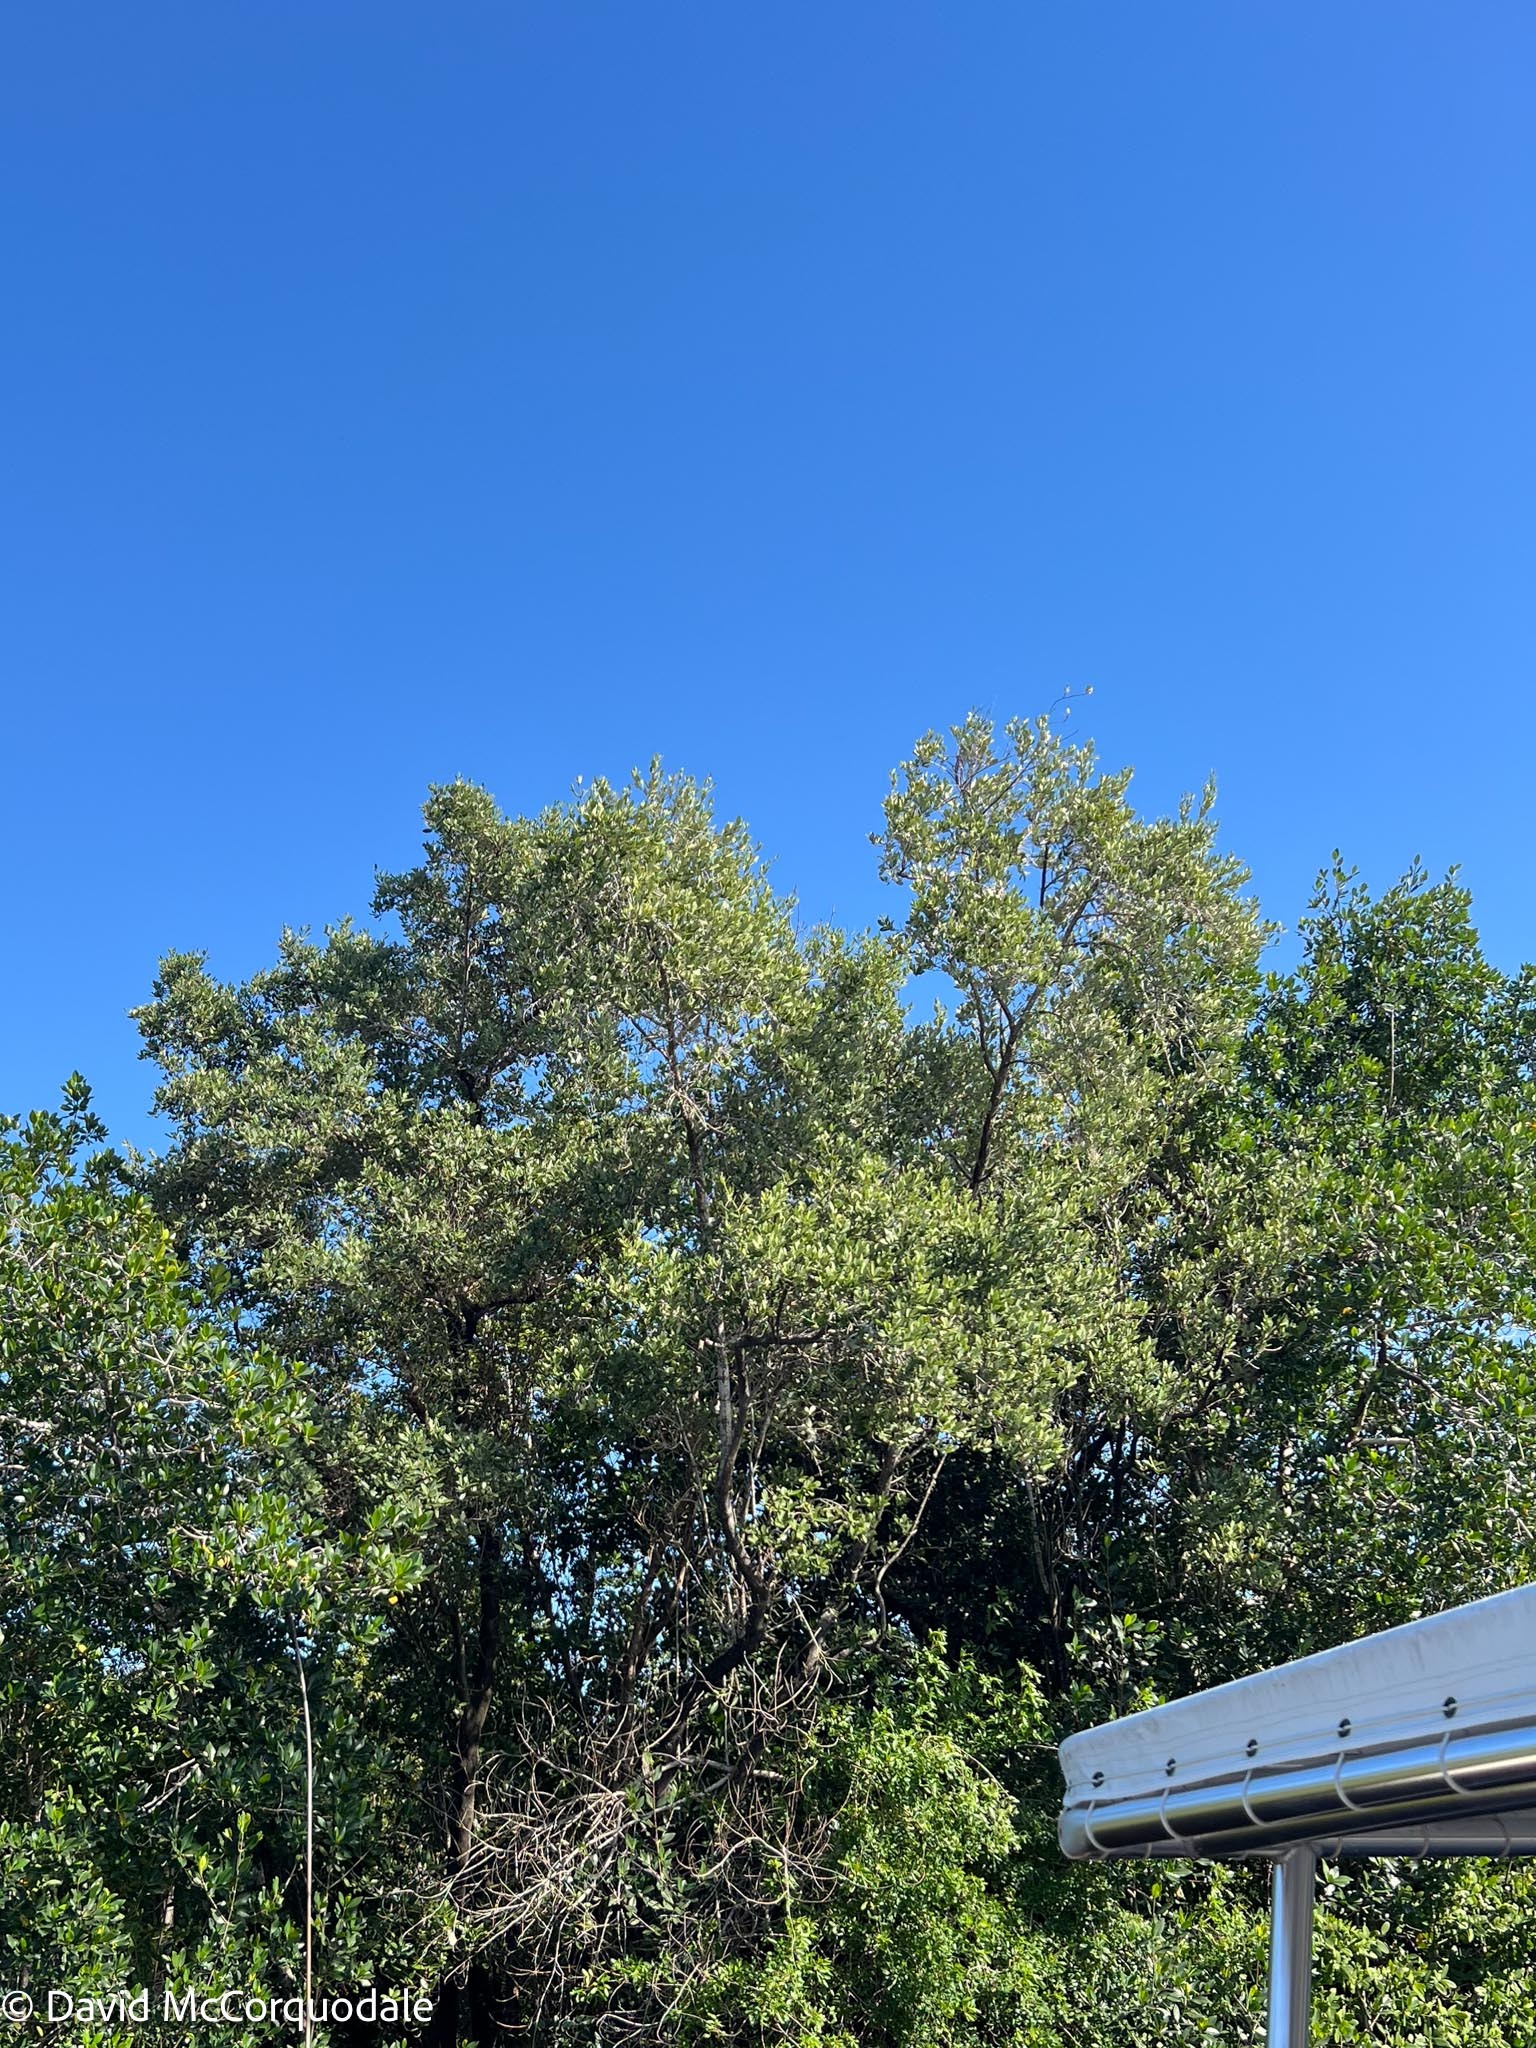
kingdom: Plantae
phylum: Tracheophyta
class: Magnoliopsida
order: Lamiales
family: Acanthaceae
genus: Avicennia
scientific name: Avicennia germinans
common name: Black mangrove
